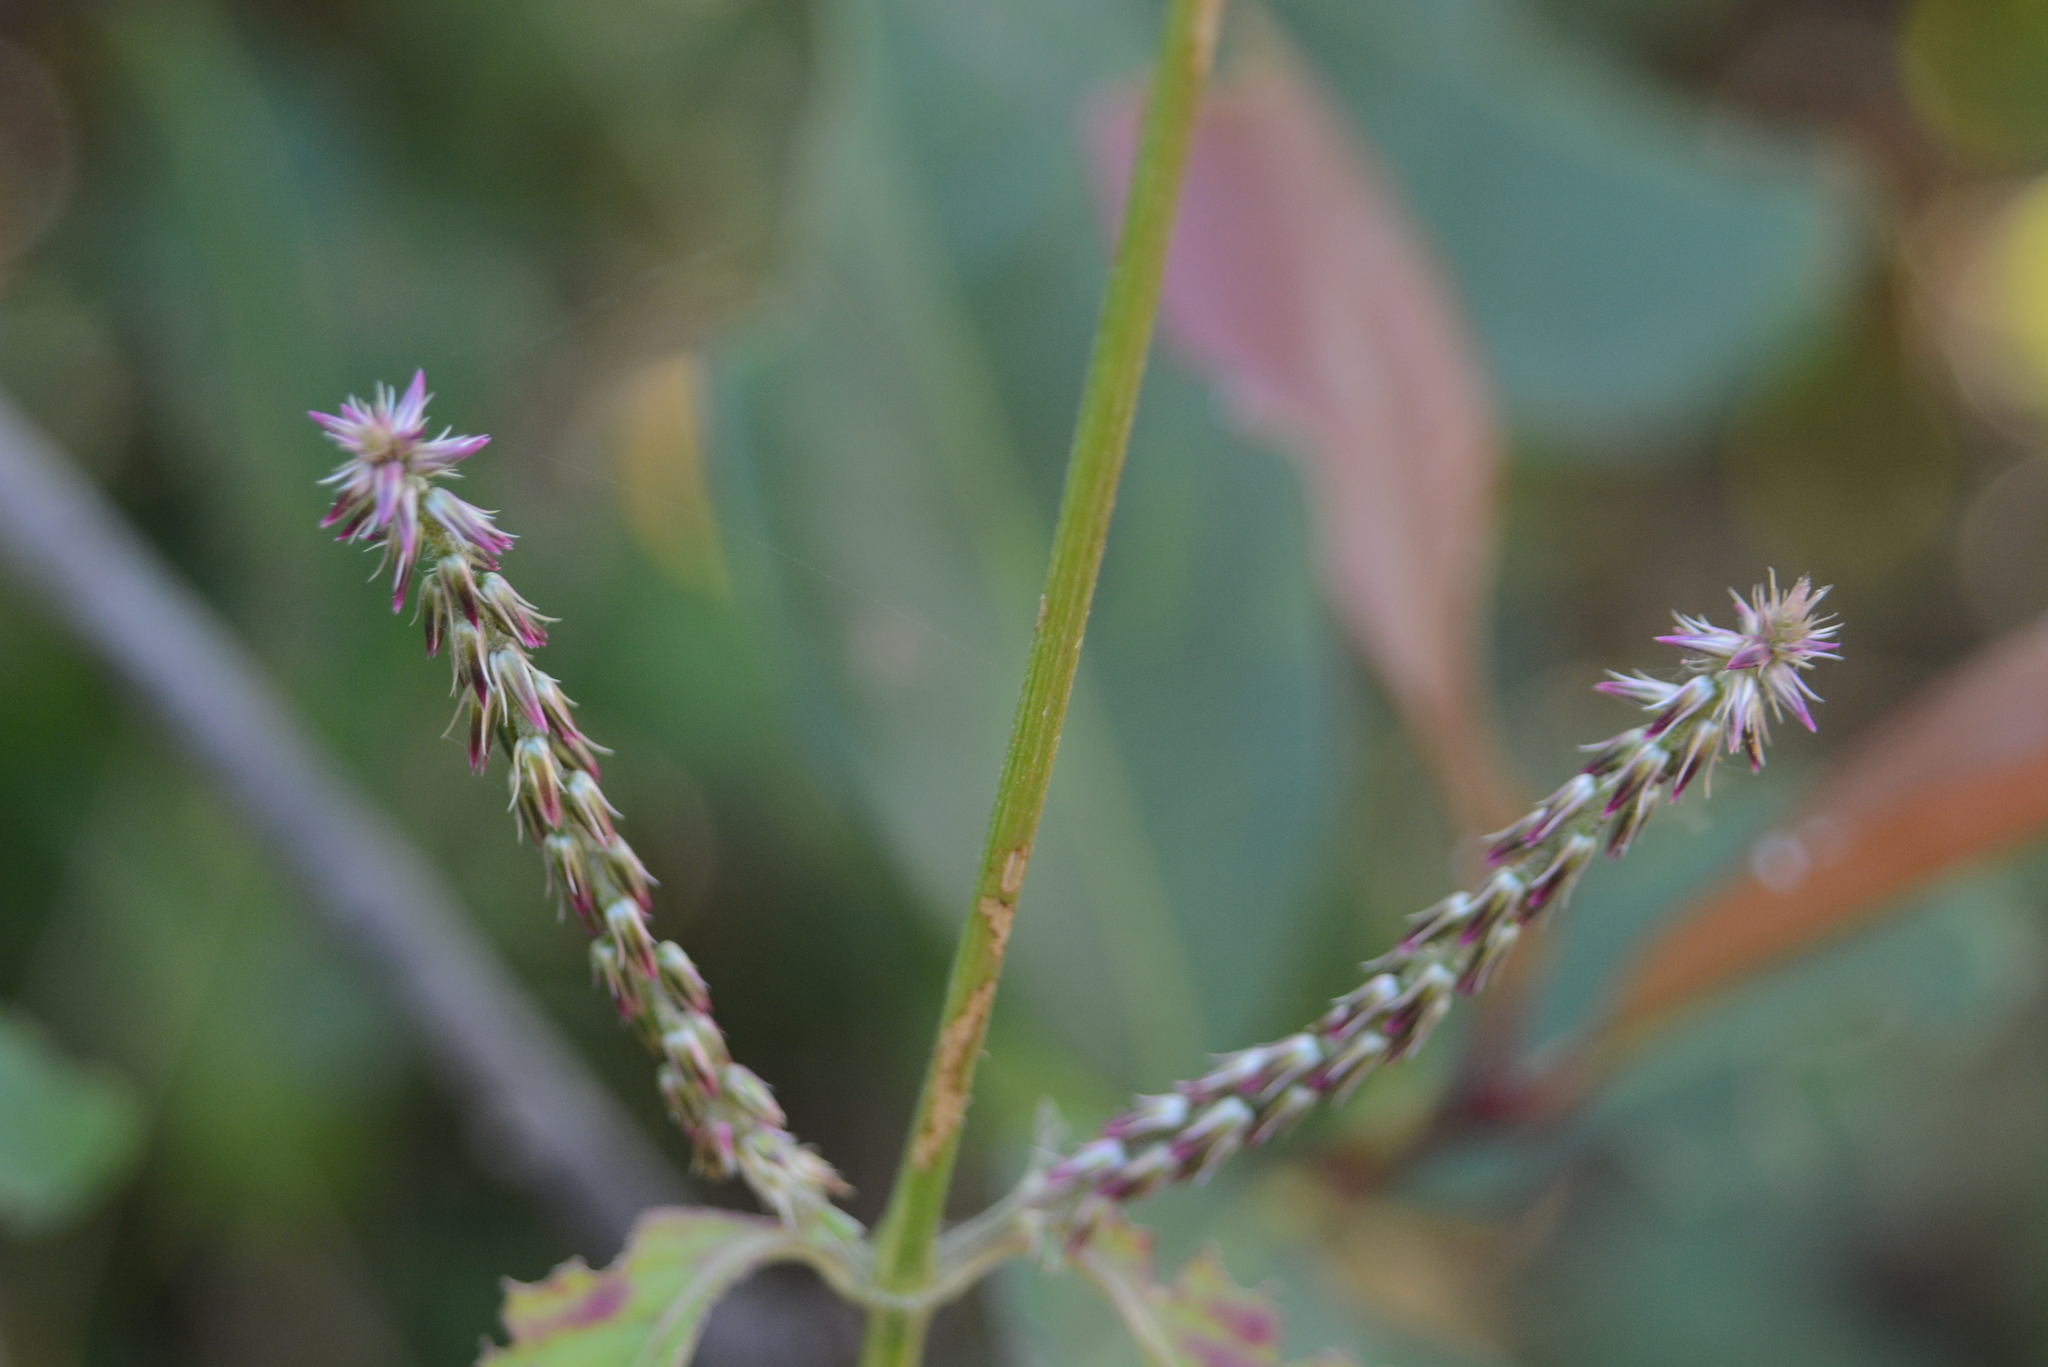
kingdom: Plantae
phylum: Tracheophyta
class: Magnoliopsida
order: Caryophyllales
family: Amaranthaceae
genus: Achyranthes
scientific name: Achyranthes aspera
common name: Devil's horsewhip
